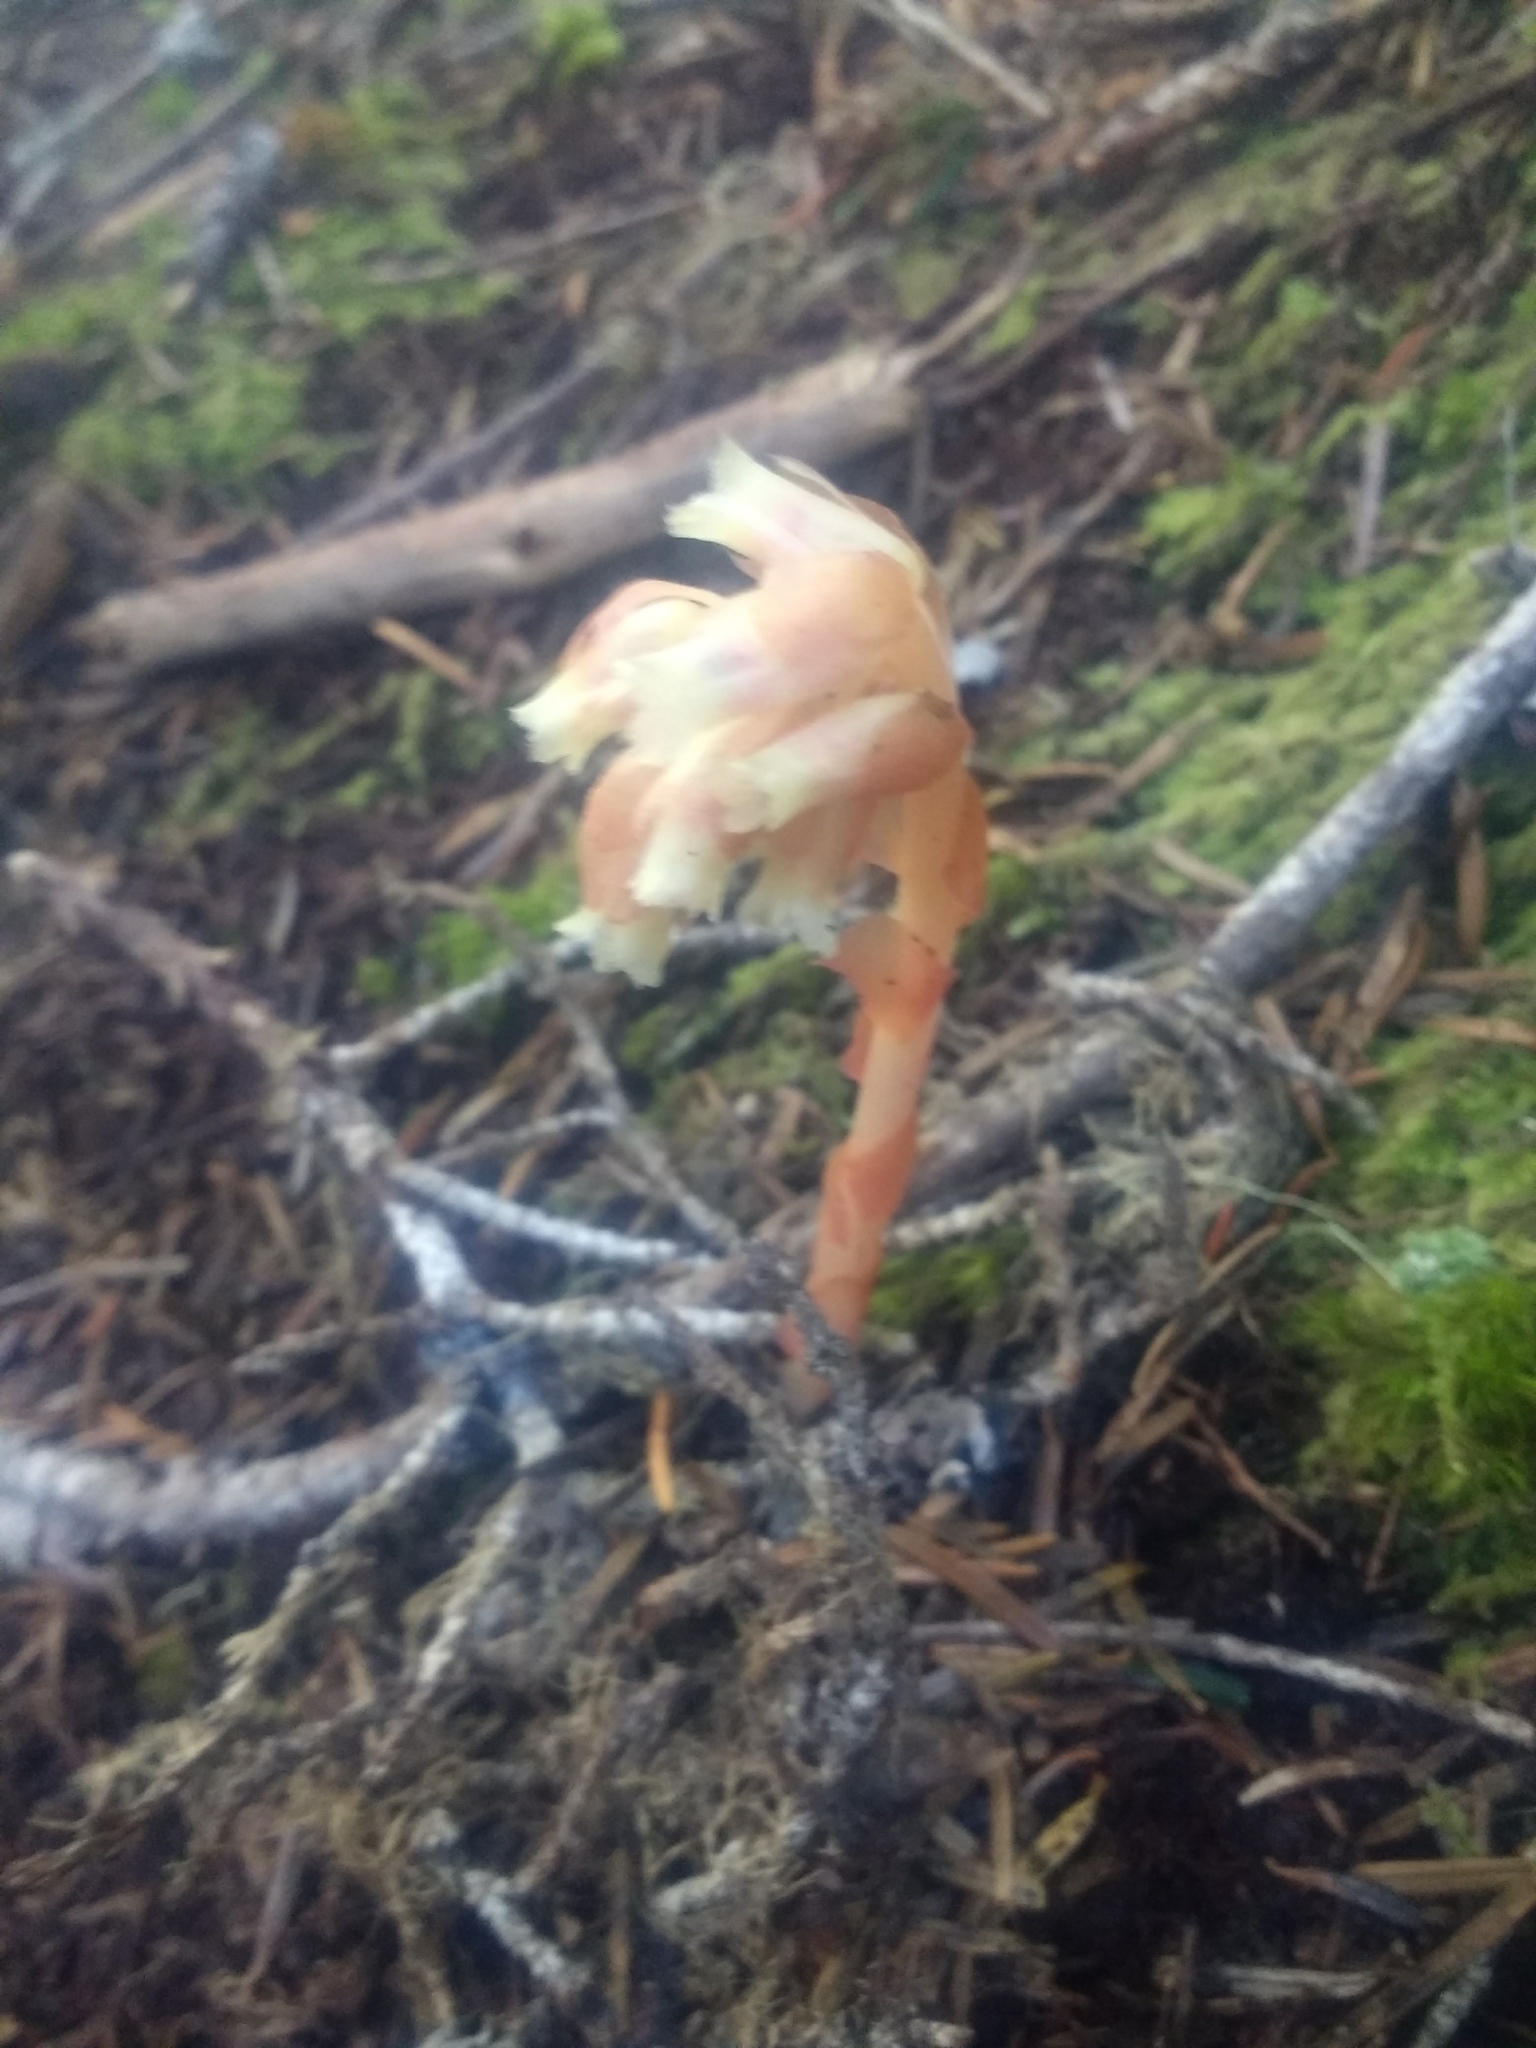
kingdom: Plantae
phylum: Tracheophyta
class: Magnoliopsida
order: Ericales
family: Ericaceae
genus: Hypopitys
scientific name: Hypopitys monotropa
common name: Yellow bird's-nest
